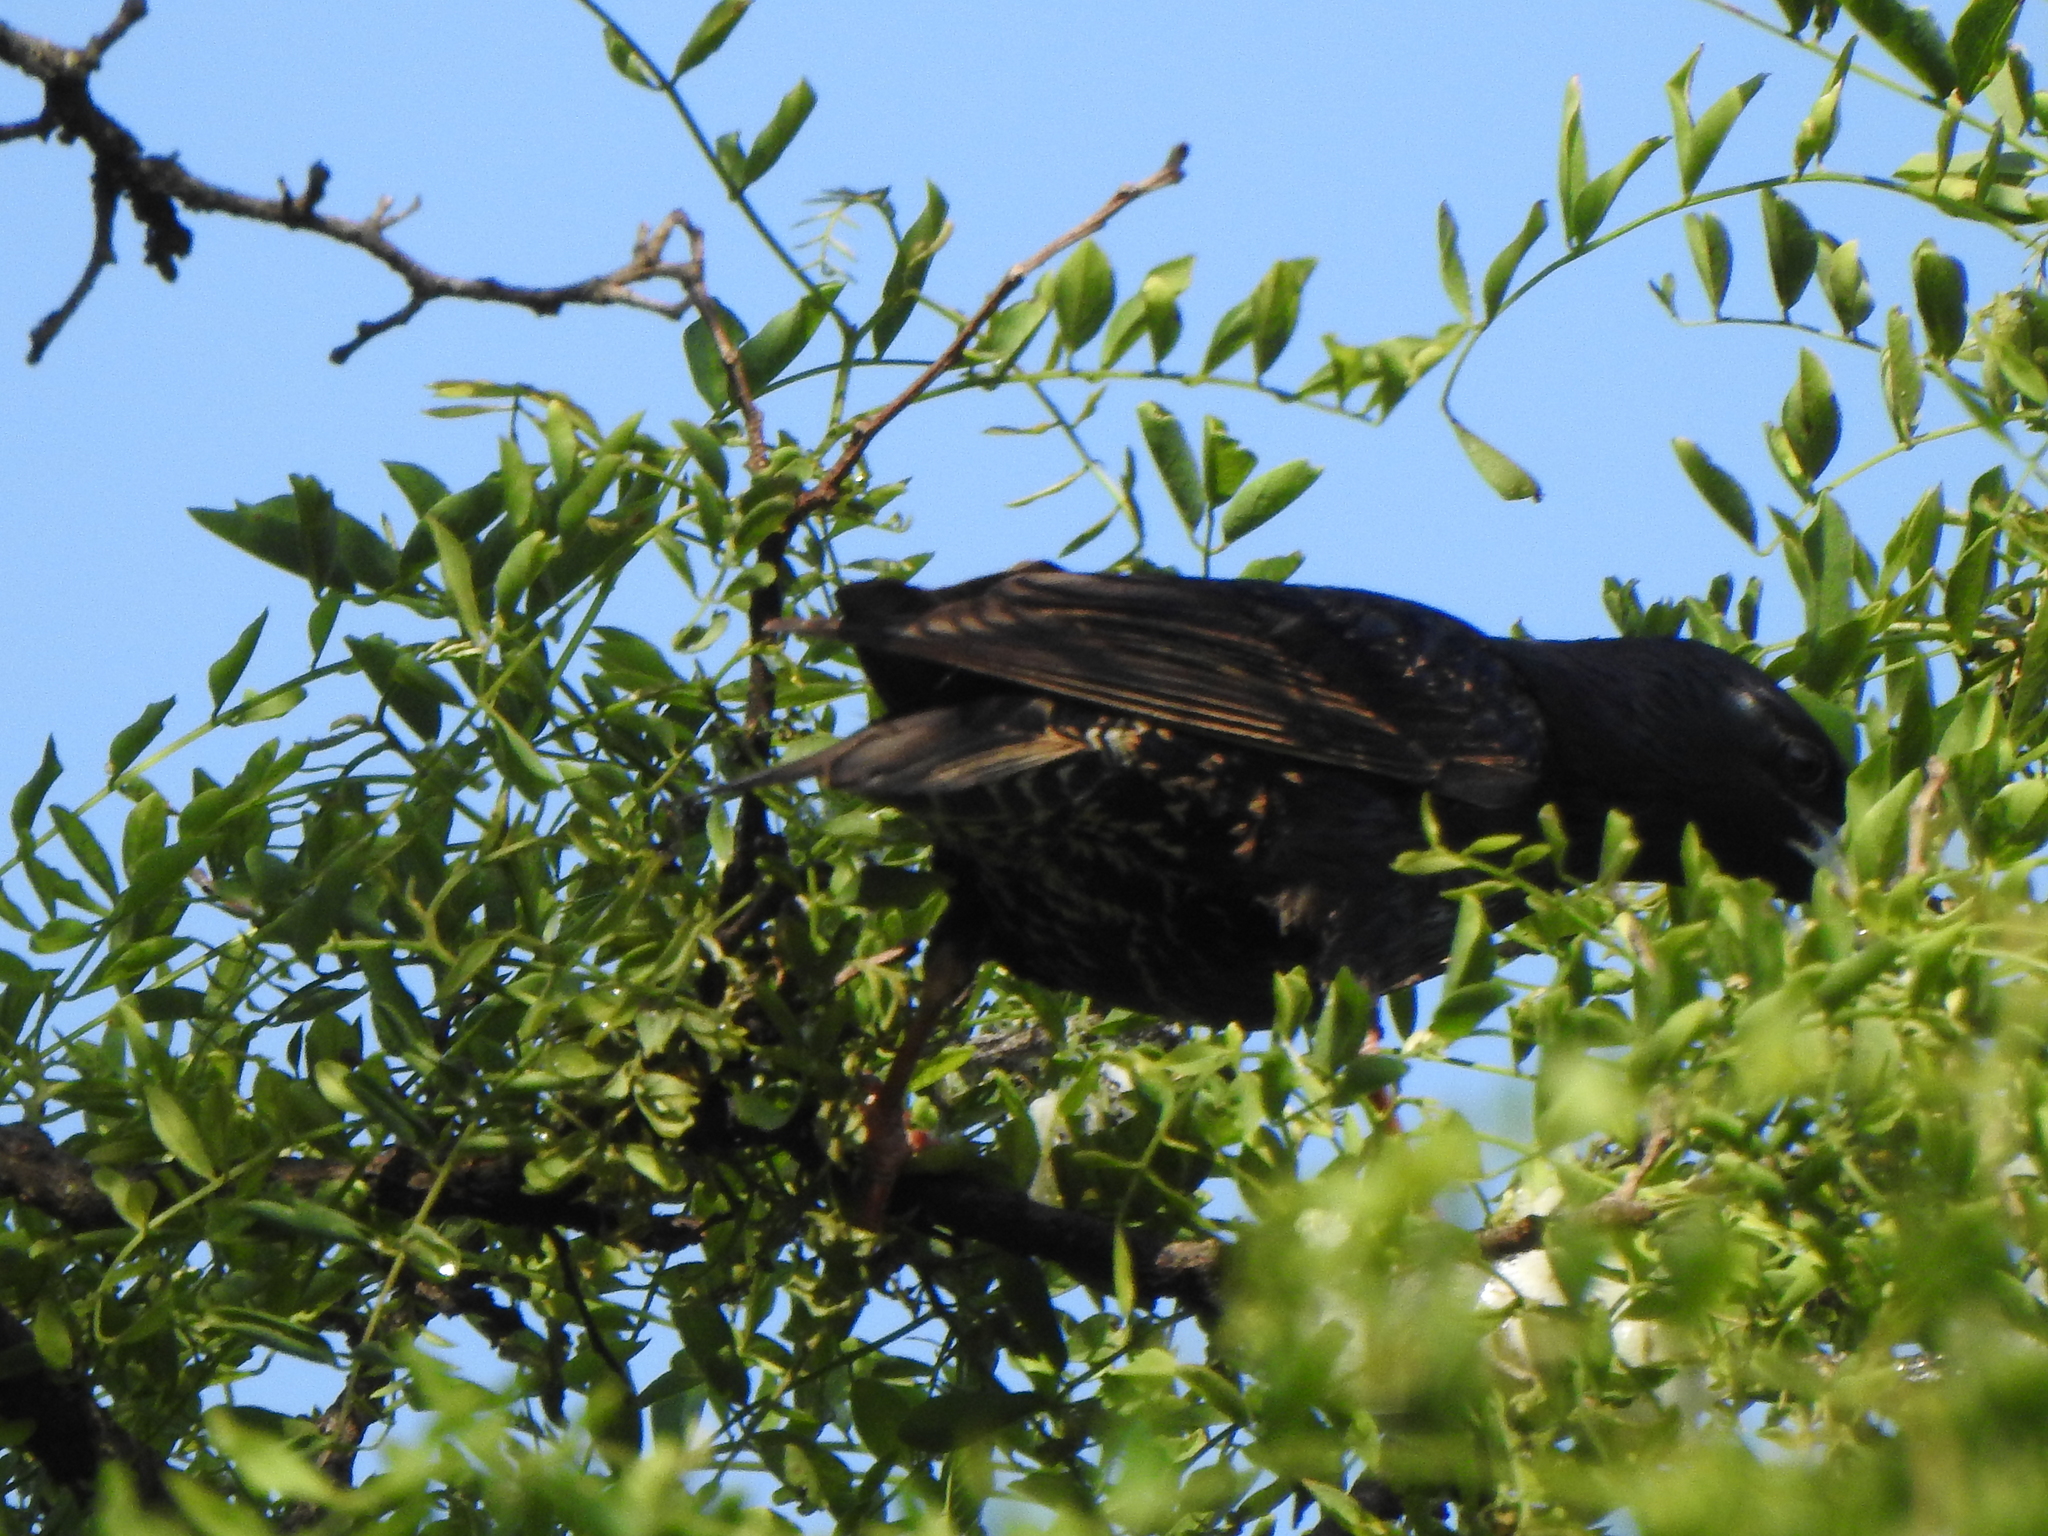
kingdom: Animalia
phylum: Chordata
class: Aves
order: Passeriformes
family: Sturnidae
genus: Sturnus
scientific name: Sturnus vulgaris
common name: Common starling
